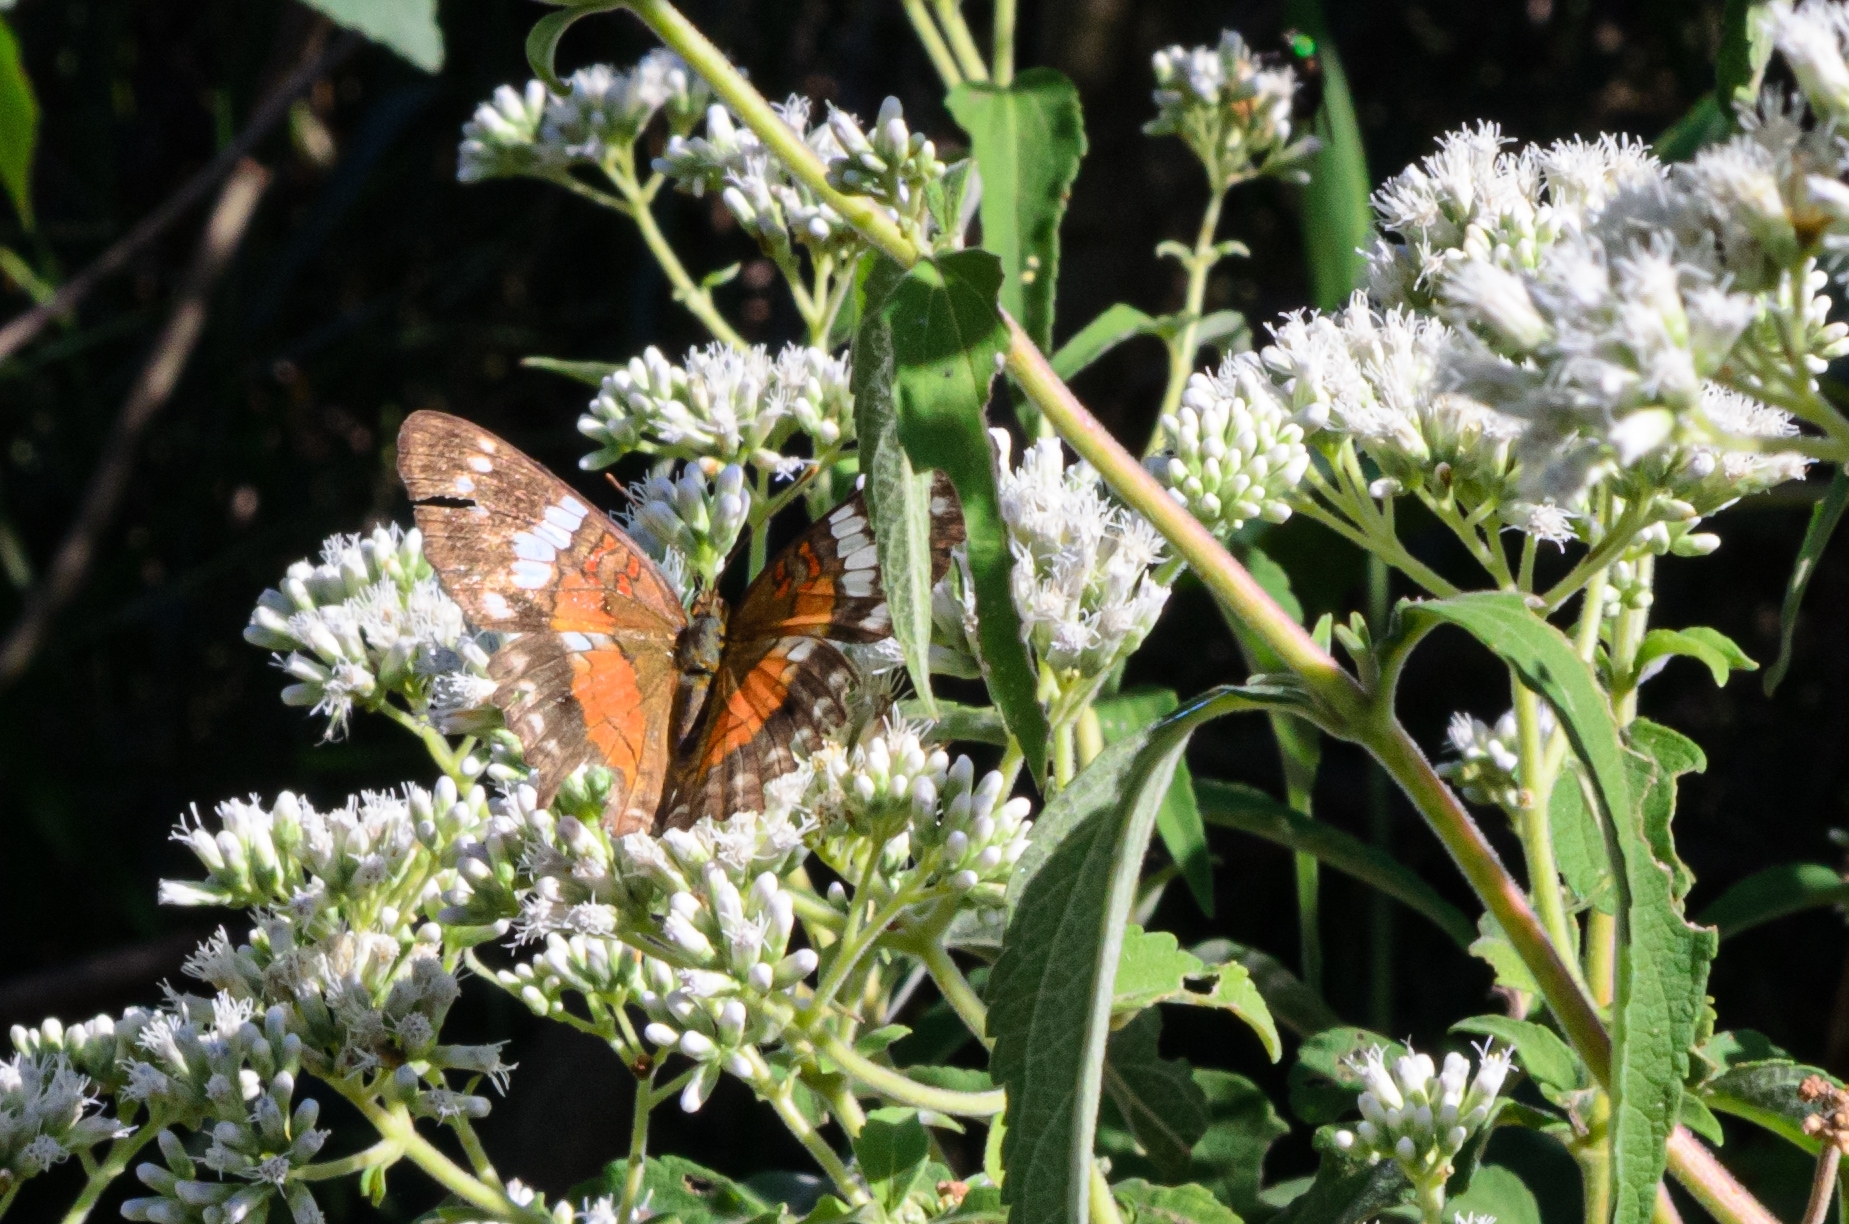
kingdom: Animalia
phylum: Arthropoda
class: Insecta
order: Lepidoptera
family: Nymphalidae
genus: Anartia
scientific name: Anartia amathea
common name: Red peacock
